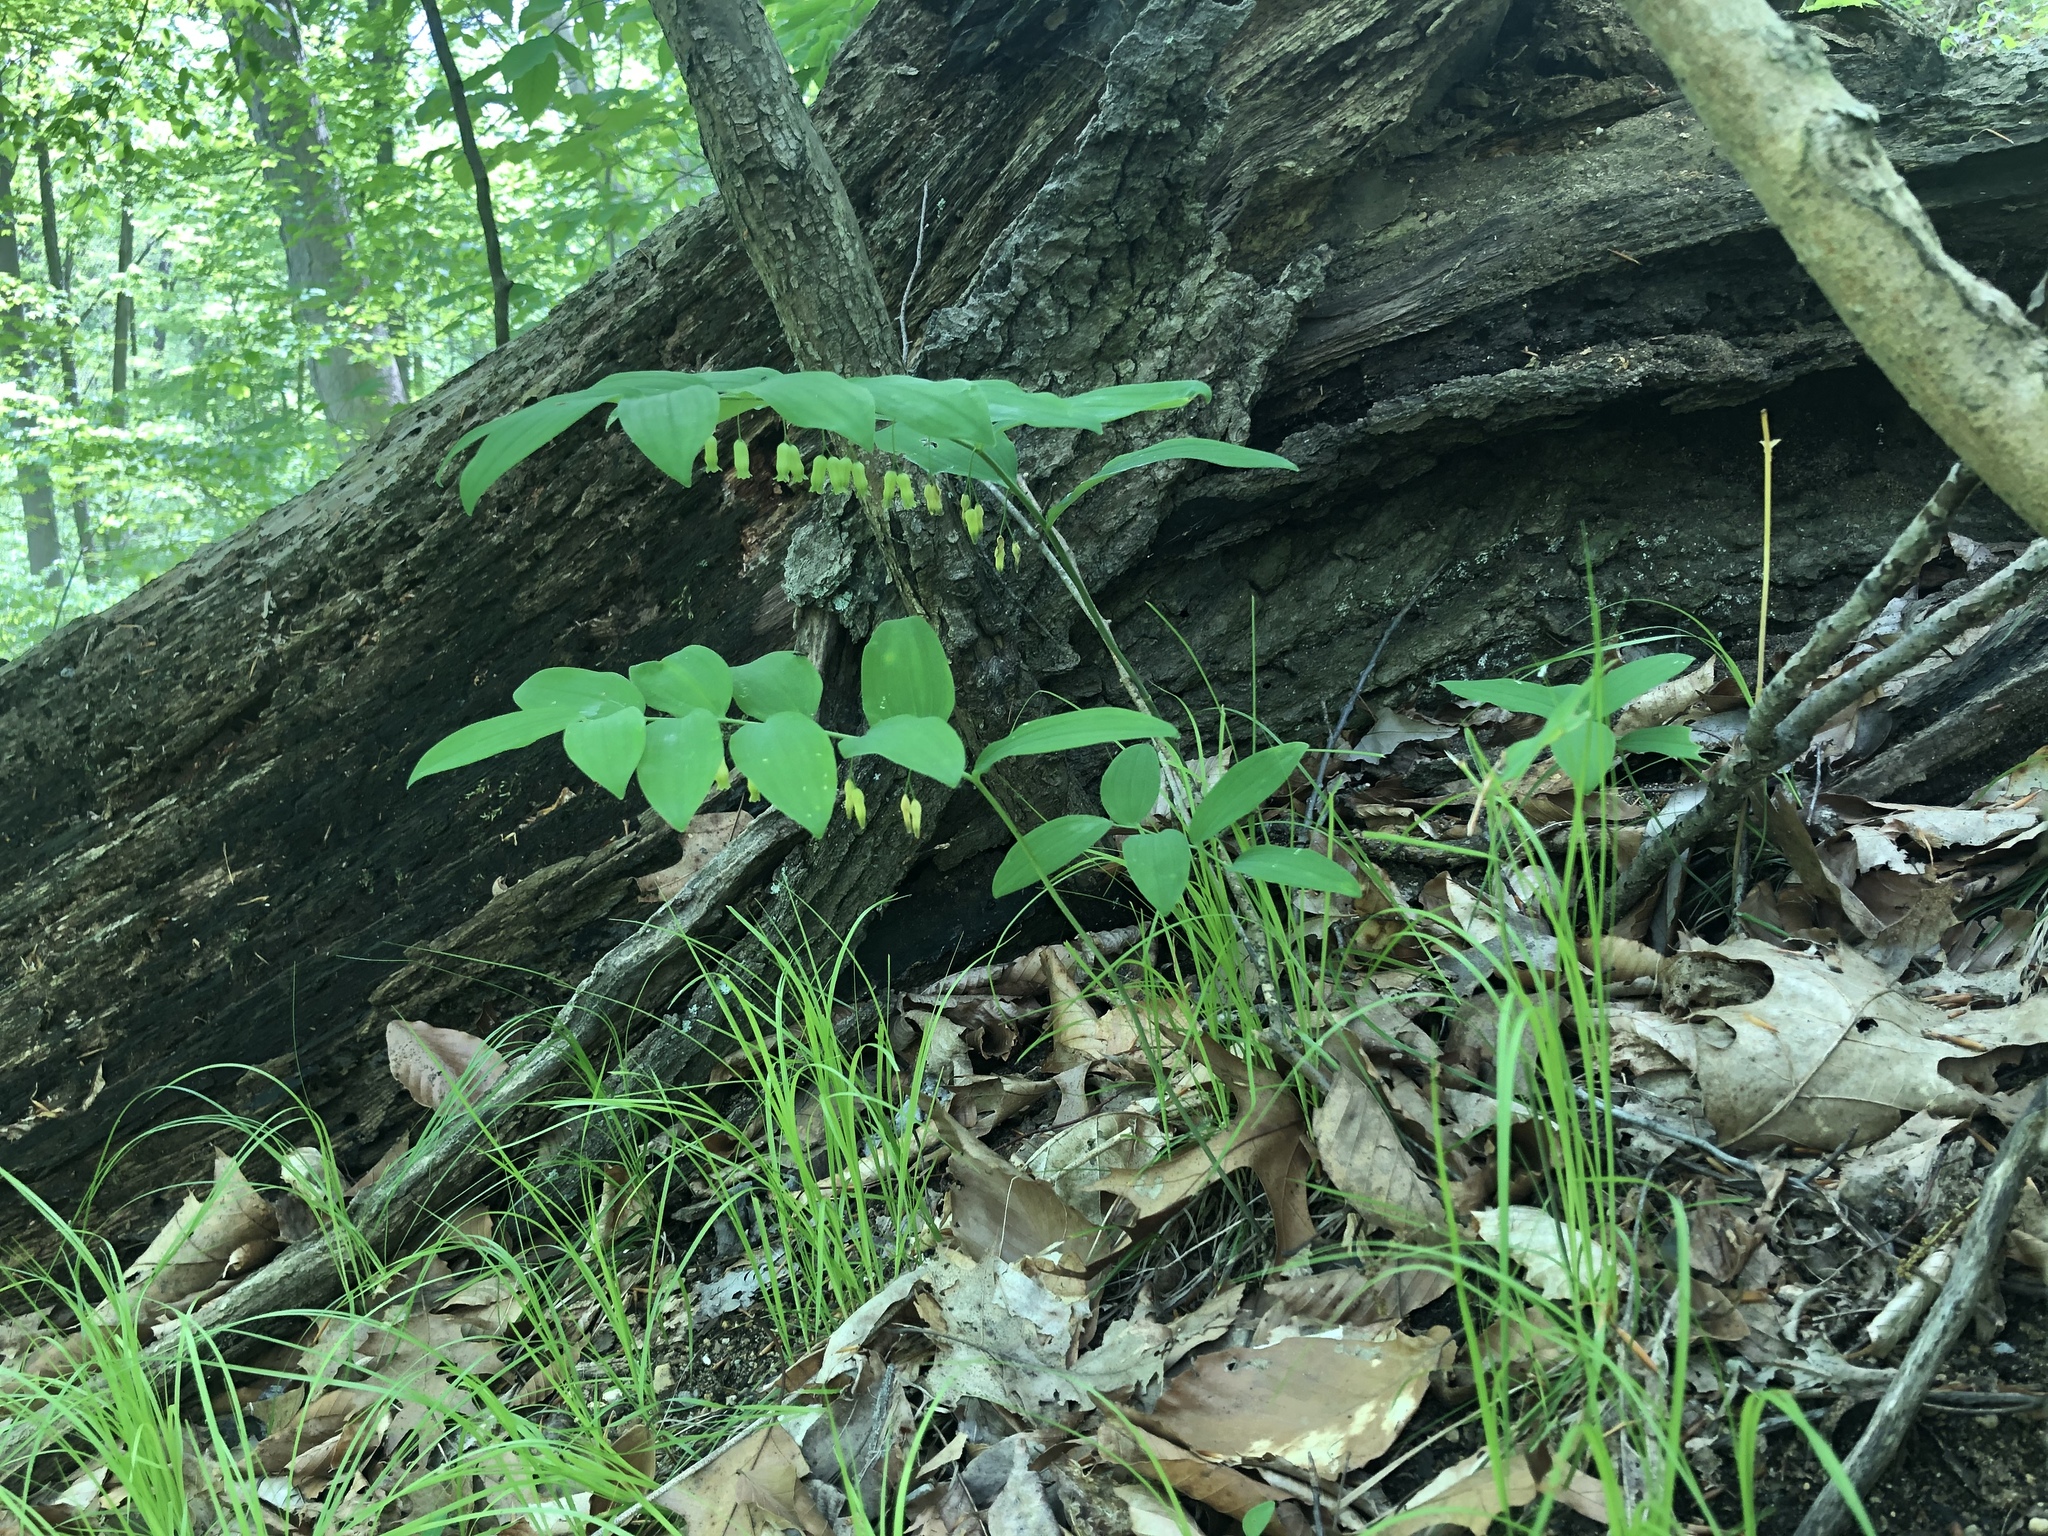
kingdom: Plantae
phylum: Tracheophyta
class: Liliopsida
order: Asparagales
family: Asparagaceae
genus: Polygonatum
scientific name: Polygonatum pubescens
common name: Downy solomon's seal
